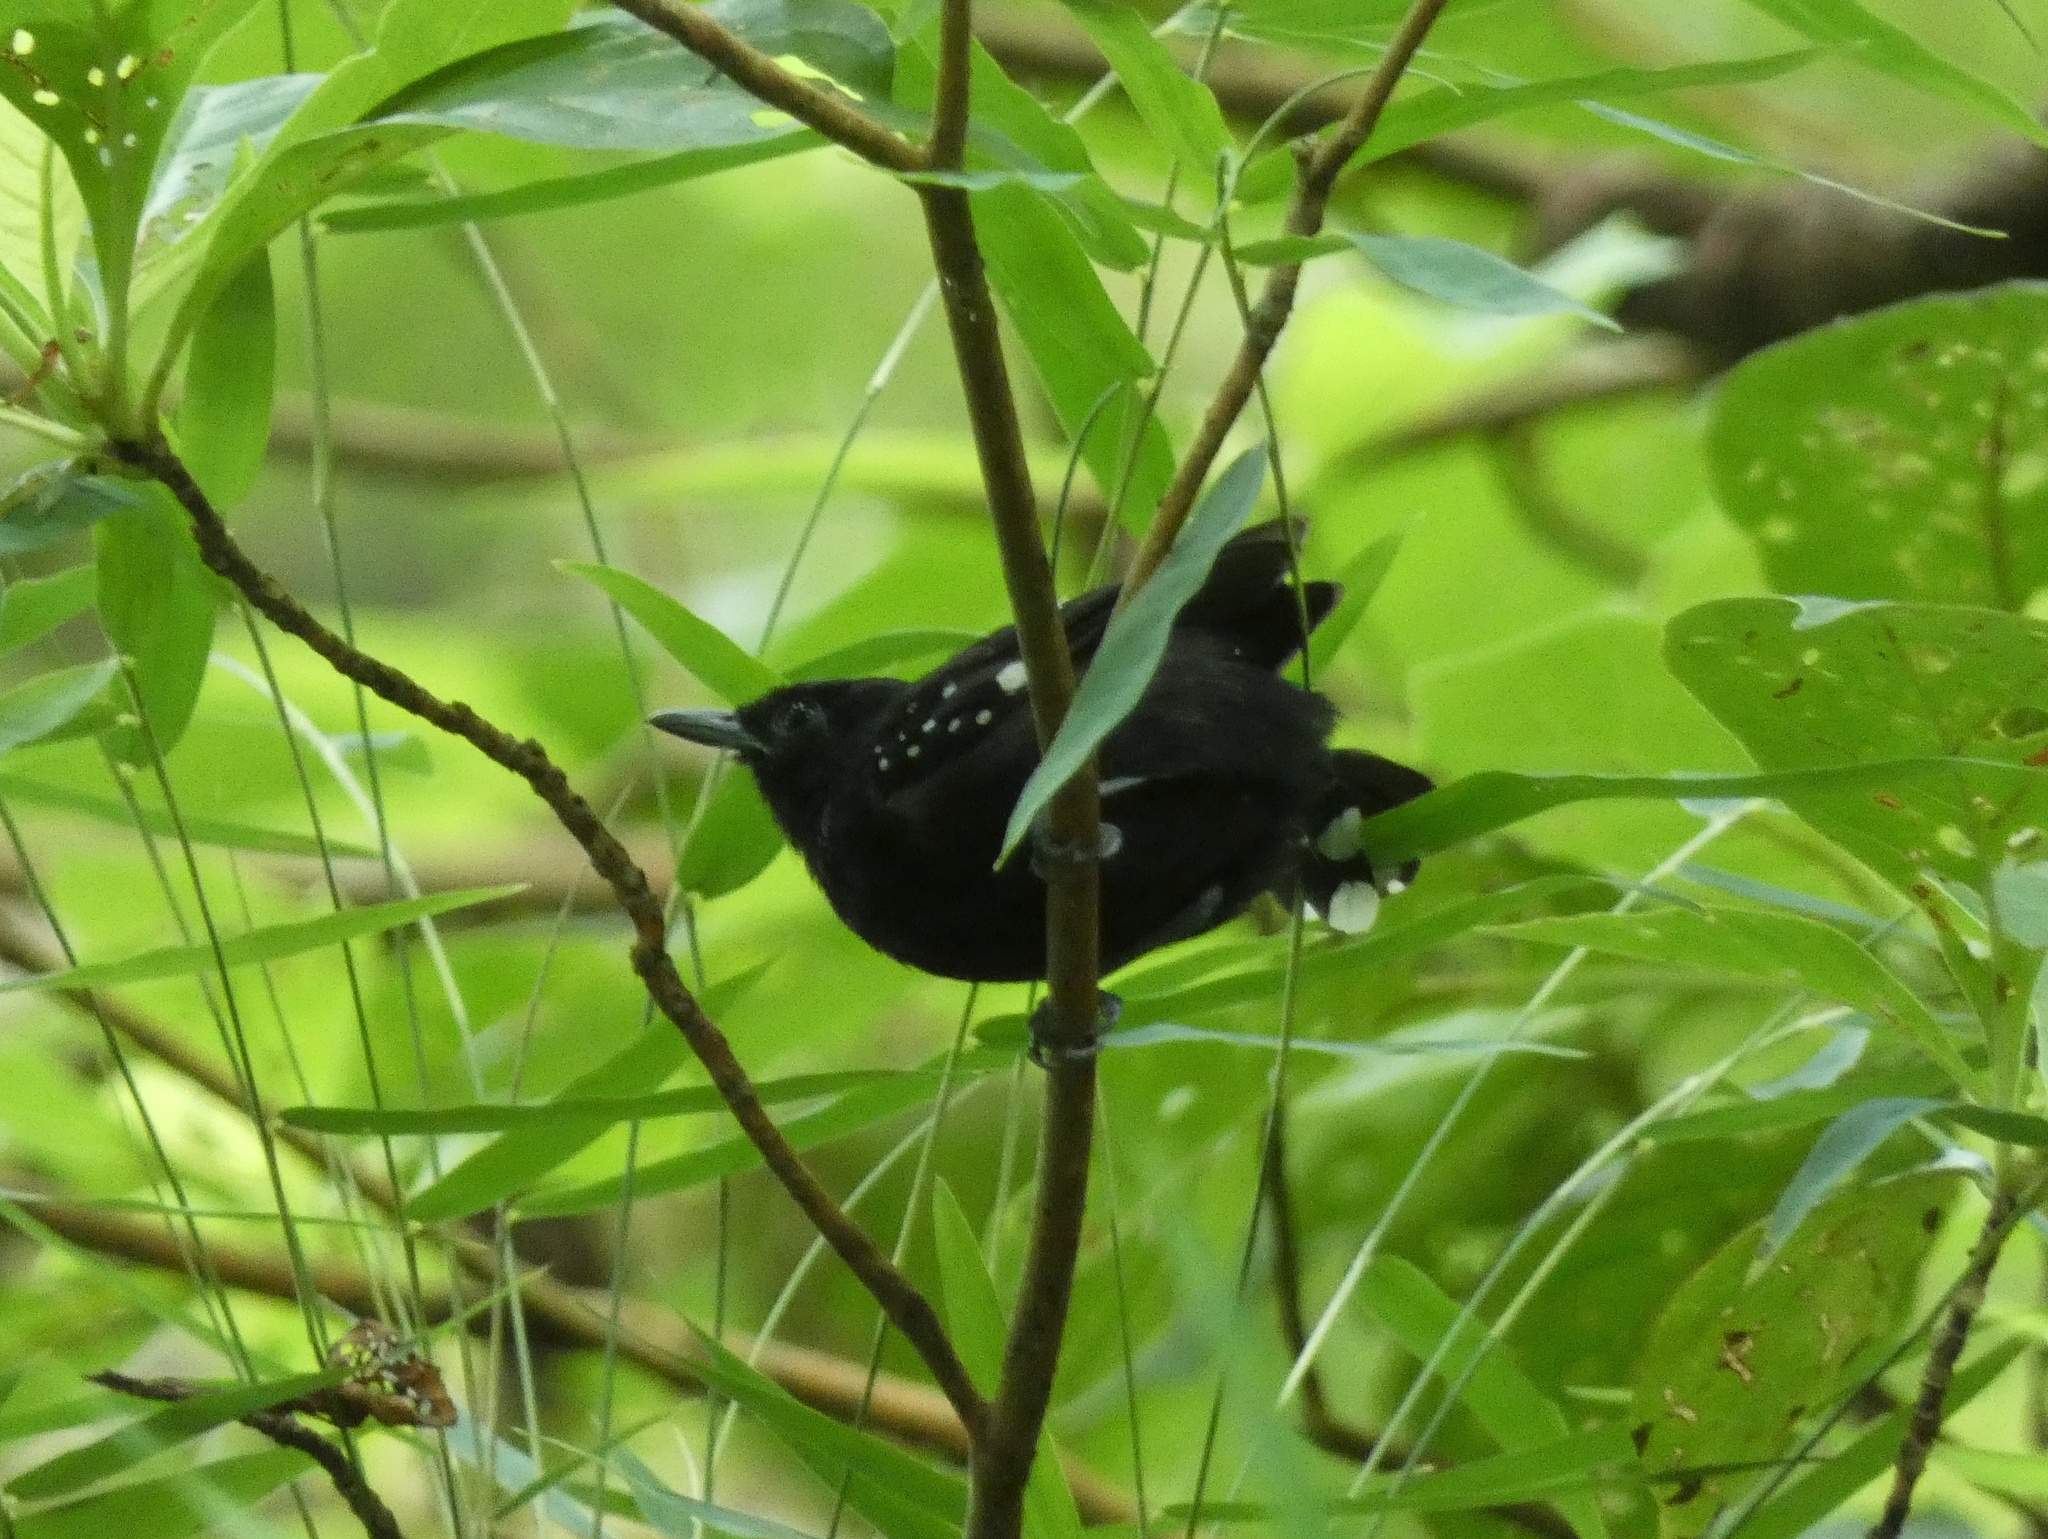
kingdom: Animalia
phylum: Chordata
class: Aves
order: Passeriformes
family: Thamnophilidae
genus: Microrhopias
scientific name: Microrhopias quixensis
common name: Dot-winged antwren
